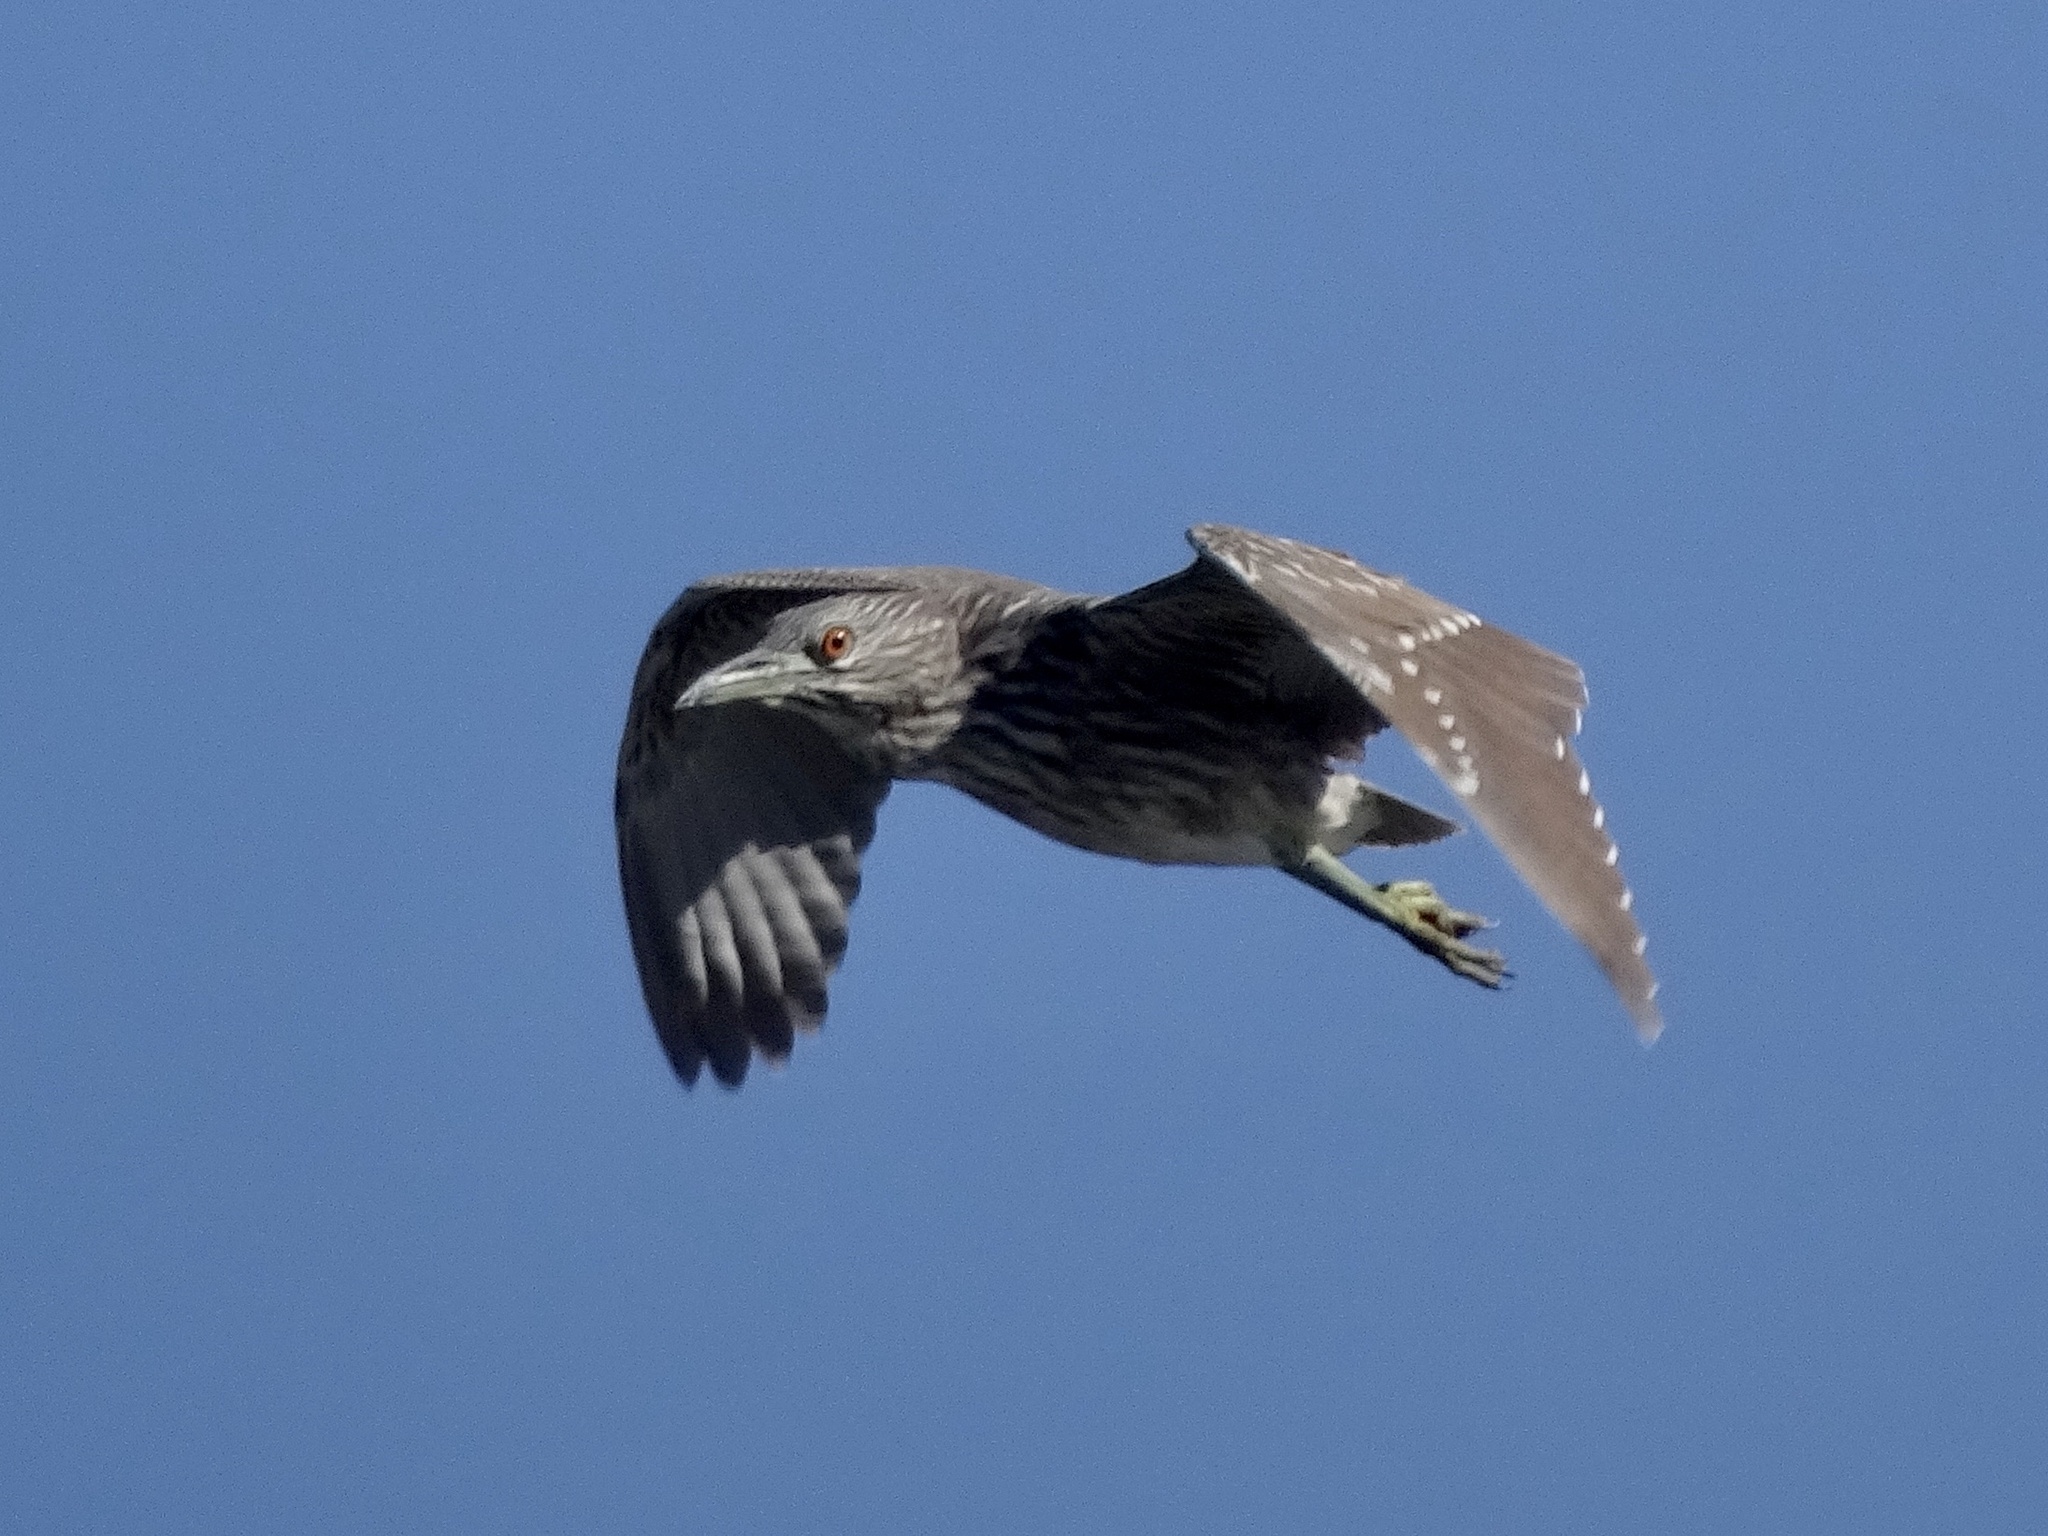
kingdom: Animalia
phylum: Chordata
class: Aves
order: Pelecaniformes
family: Ardeidae
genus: Nycticorax
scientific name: Nycticorax nycticorax
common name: Black-crowned night heron
